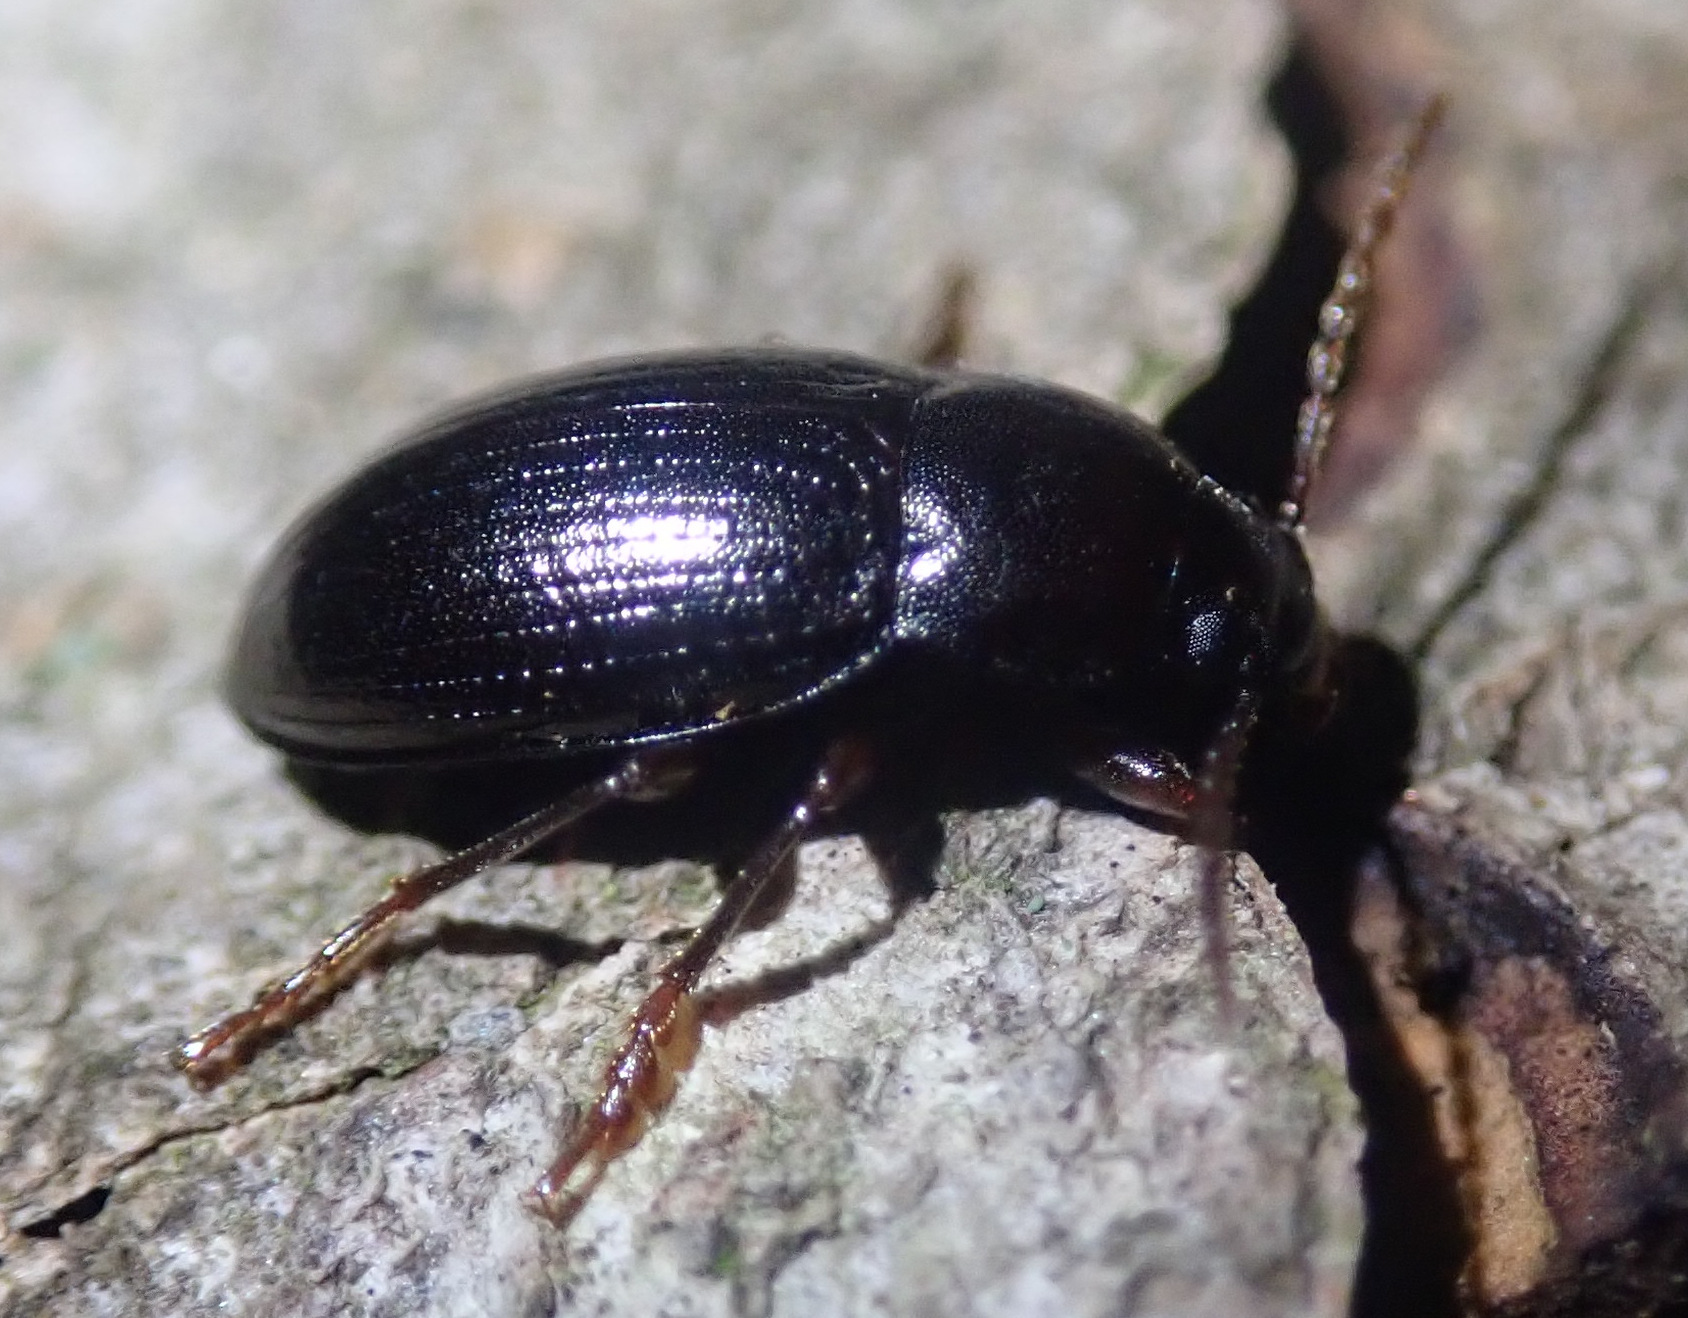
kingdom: Animalia
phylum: Arthropoda
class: Insecta
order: Coleoptera
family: Tenebrionidae
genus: Nalassus
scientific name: Nalassus laevioctostriatus
